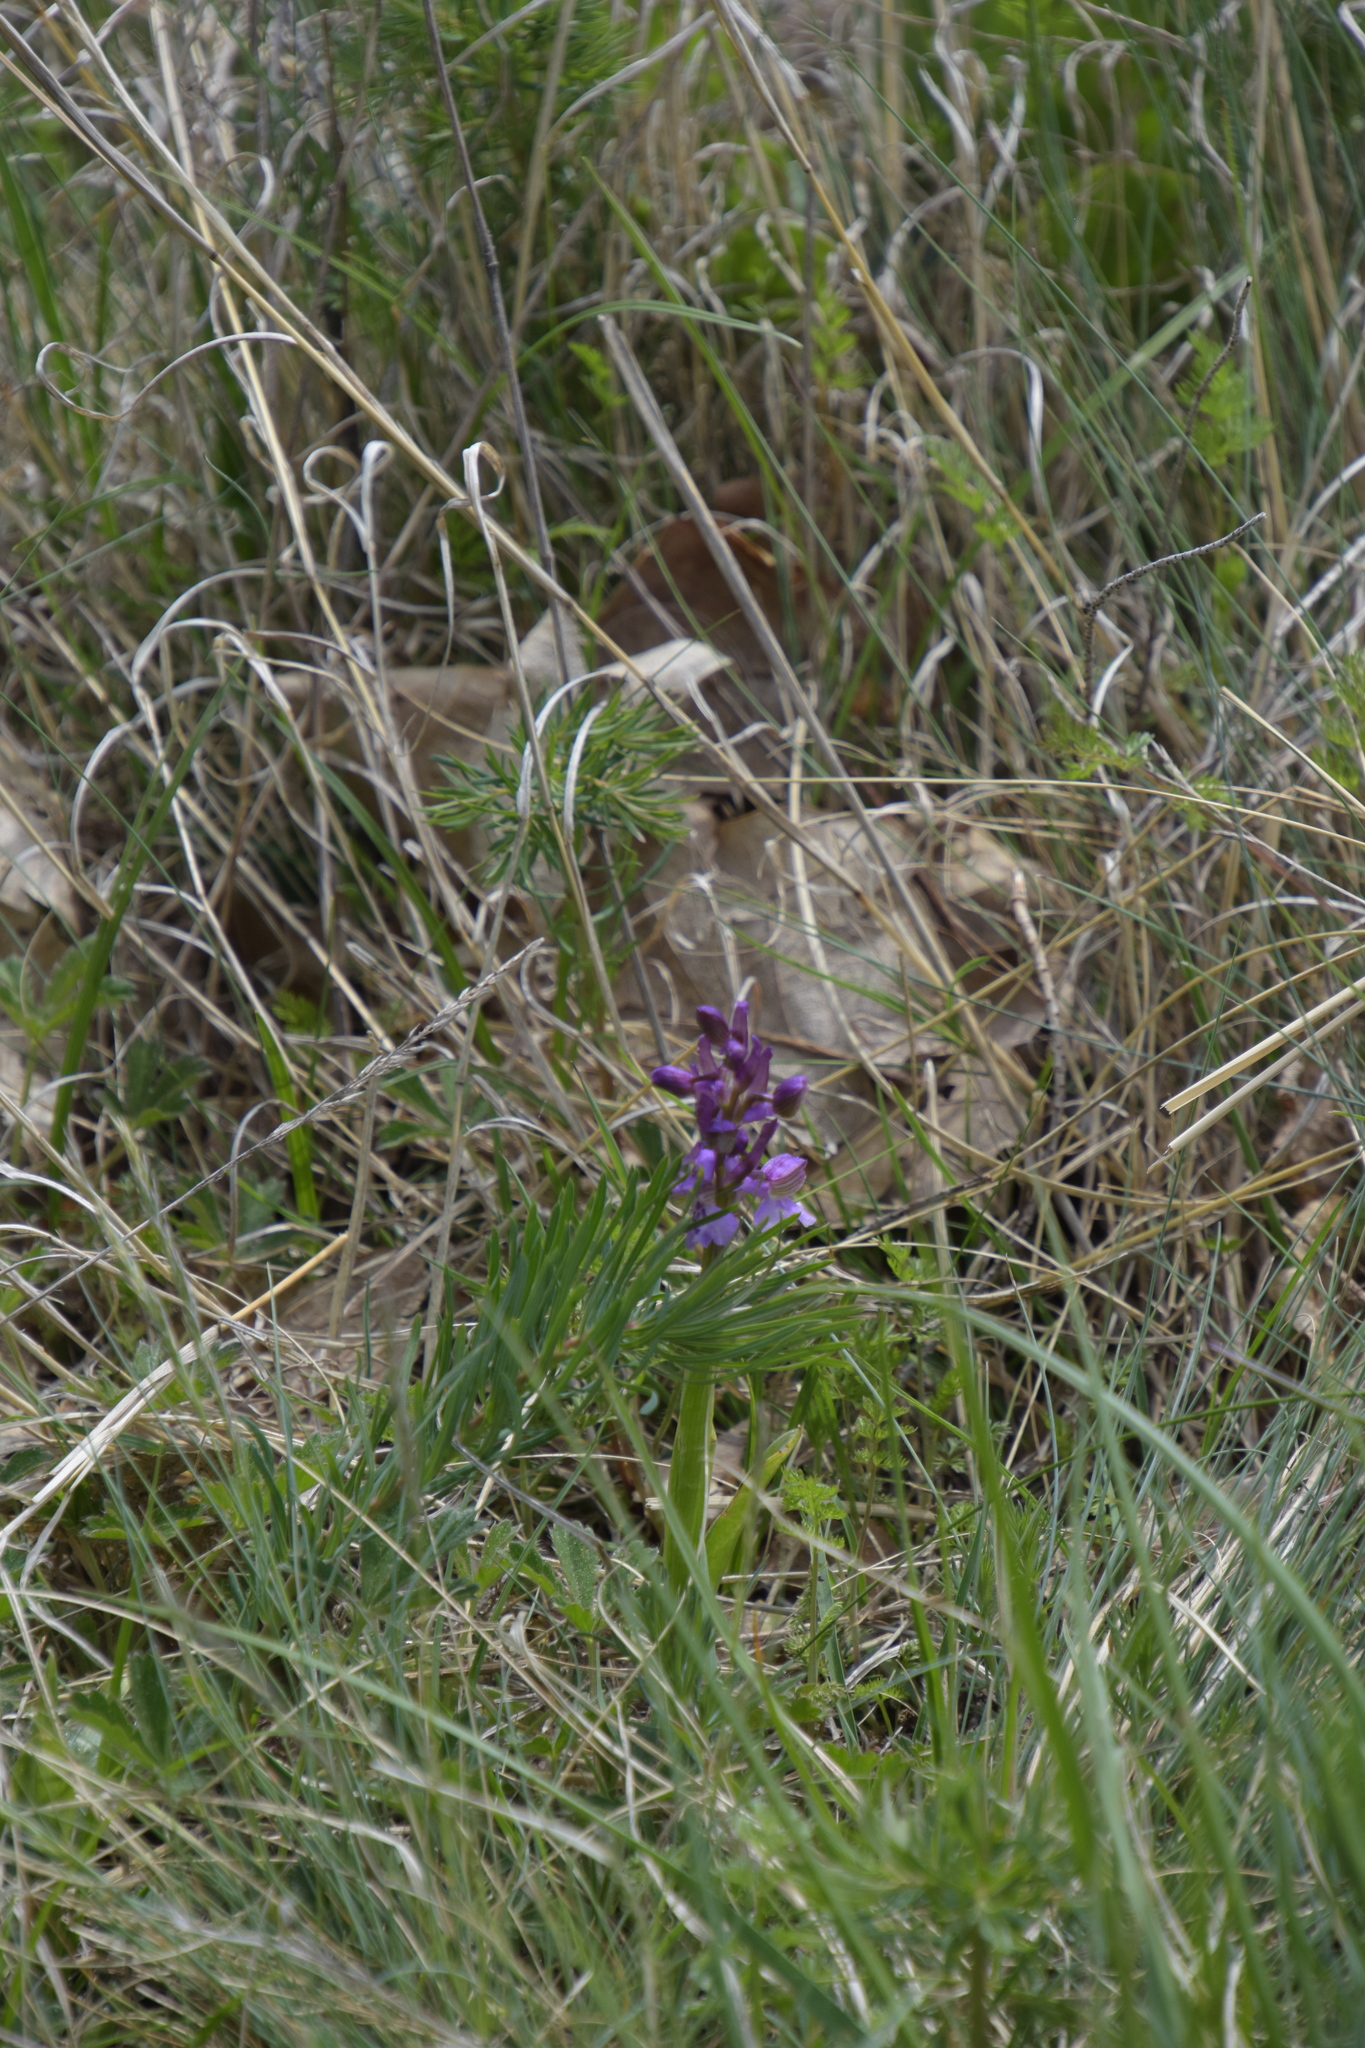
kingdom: Plantae
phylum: Tracheophyta
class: Liliopsida
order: Asparagales
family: Orchidaceae
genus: Anacamptis
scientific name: Anacamptis morio
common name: Green-winged orchid
